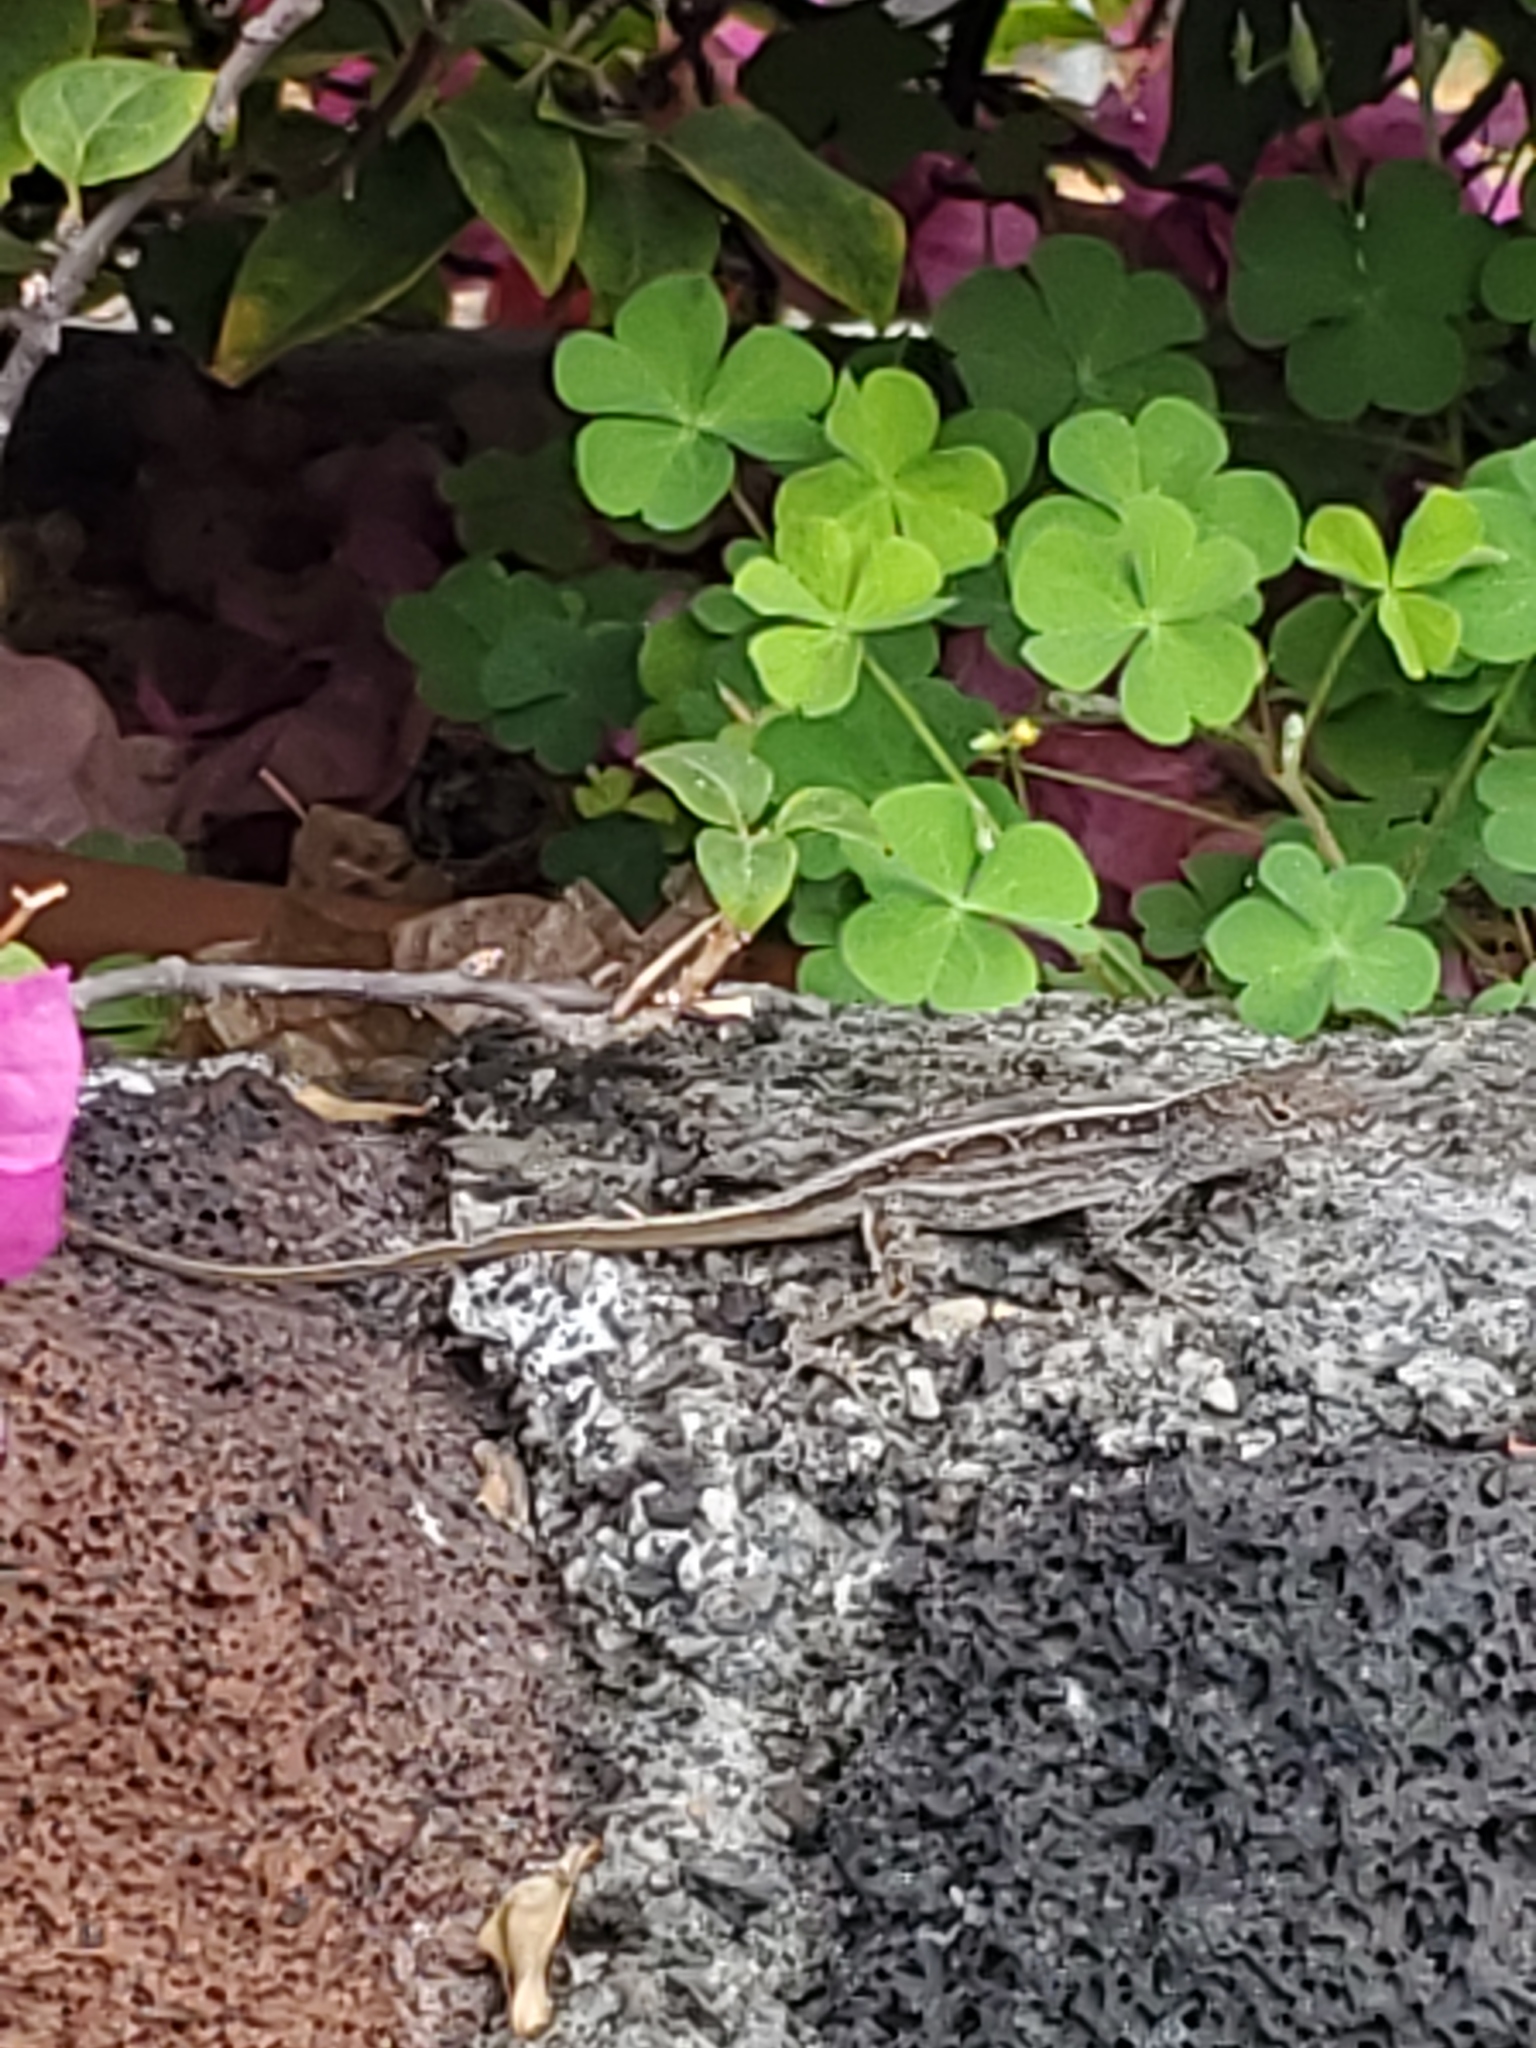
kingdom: Animalia
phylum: Chordata
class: Squamata
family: Dactyloidae
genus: Anolis
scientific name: Anolis sagrei
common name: Brown anole
